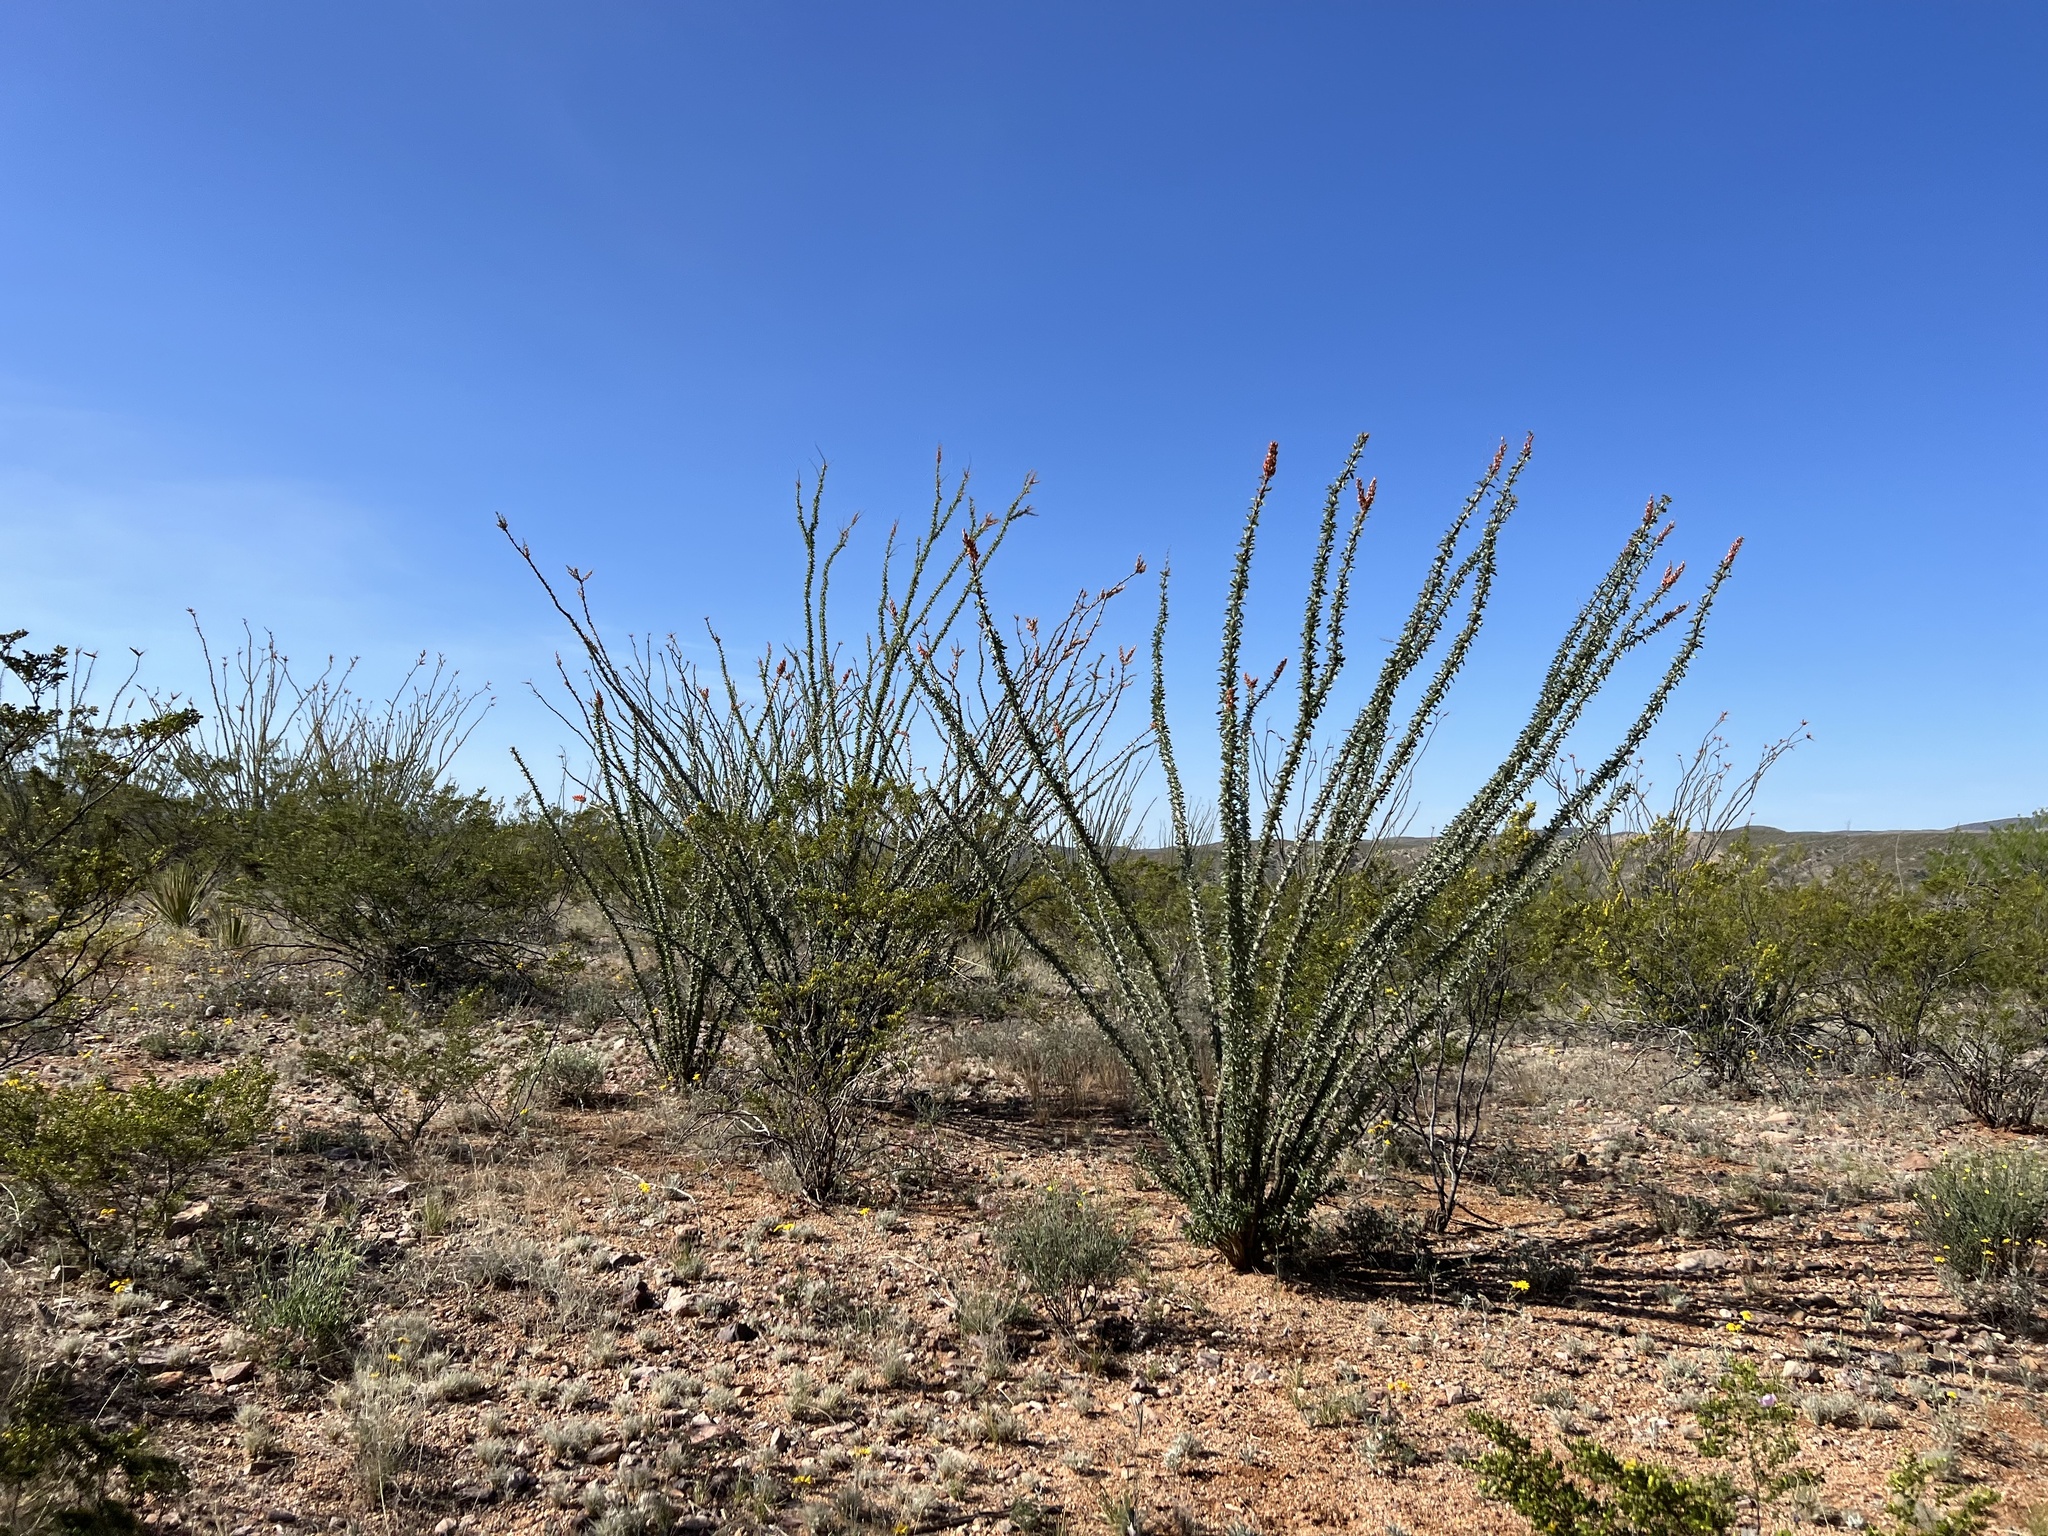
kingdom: Plantae
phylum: Tracheophyta
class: Magnoliopsida
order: Ericales
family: Fouquieriaceae
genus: Fouquieria
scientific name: Fouquieria splendens
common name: Vine-cactus
